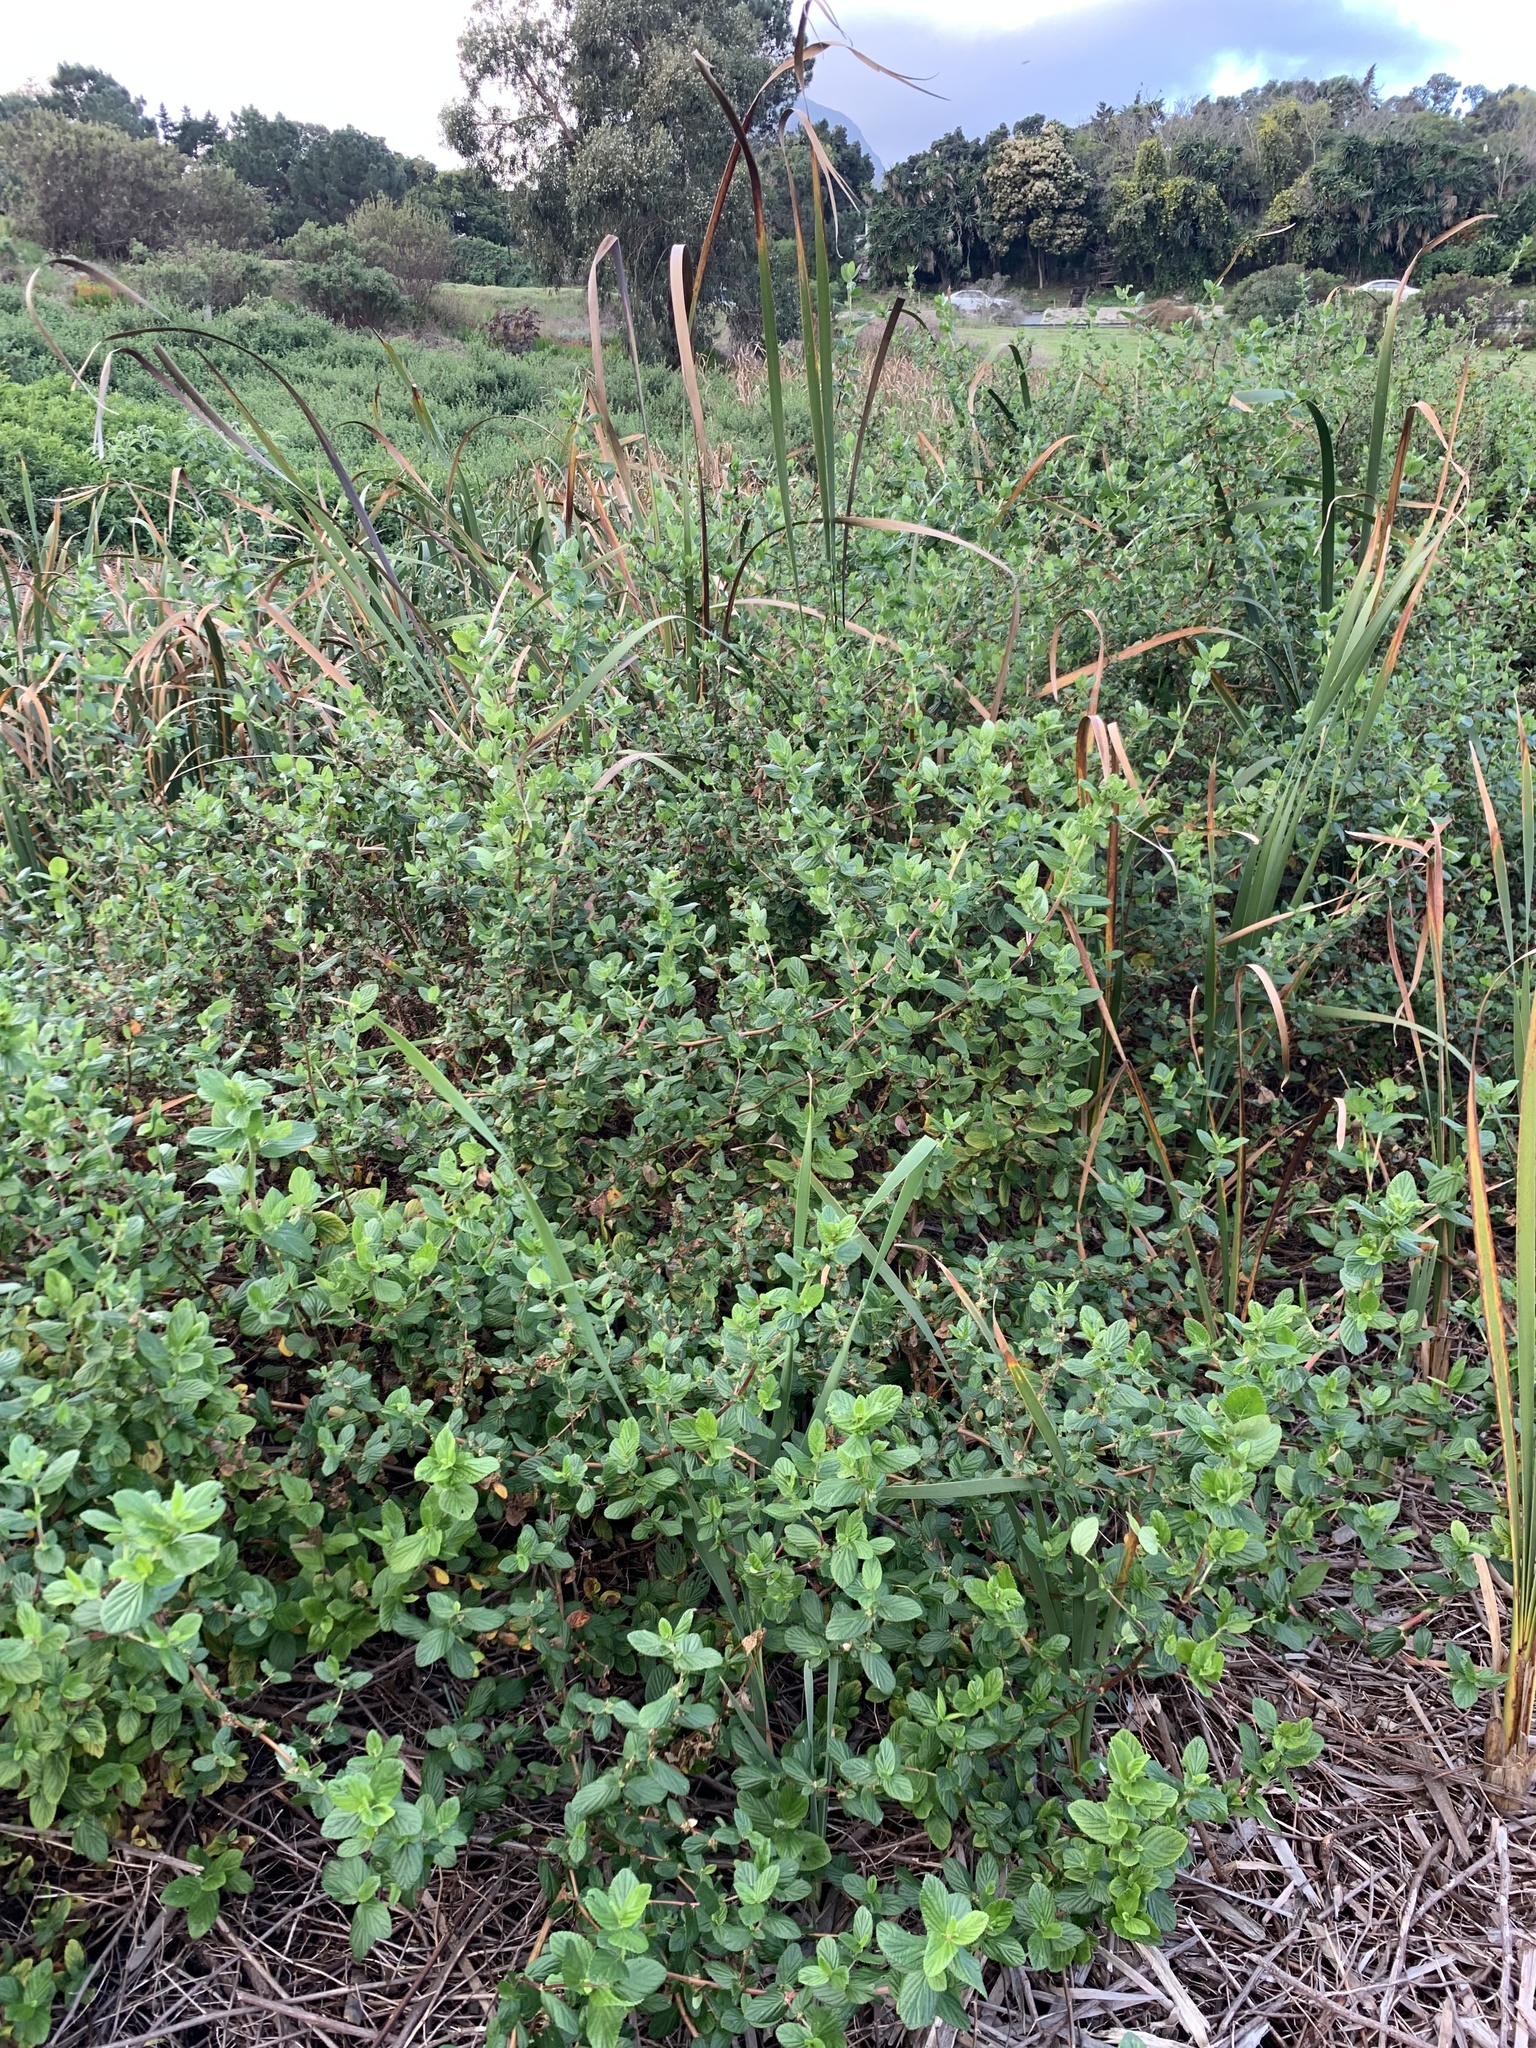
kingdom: Plantae
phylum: Tracheophyta
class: Magnoliopsida
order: Rosales
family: Rosaceae
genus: Cliffortia
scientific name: Cliffortia odorata
